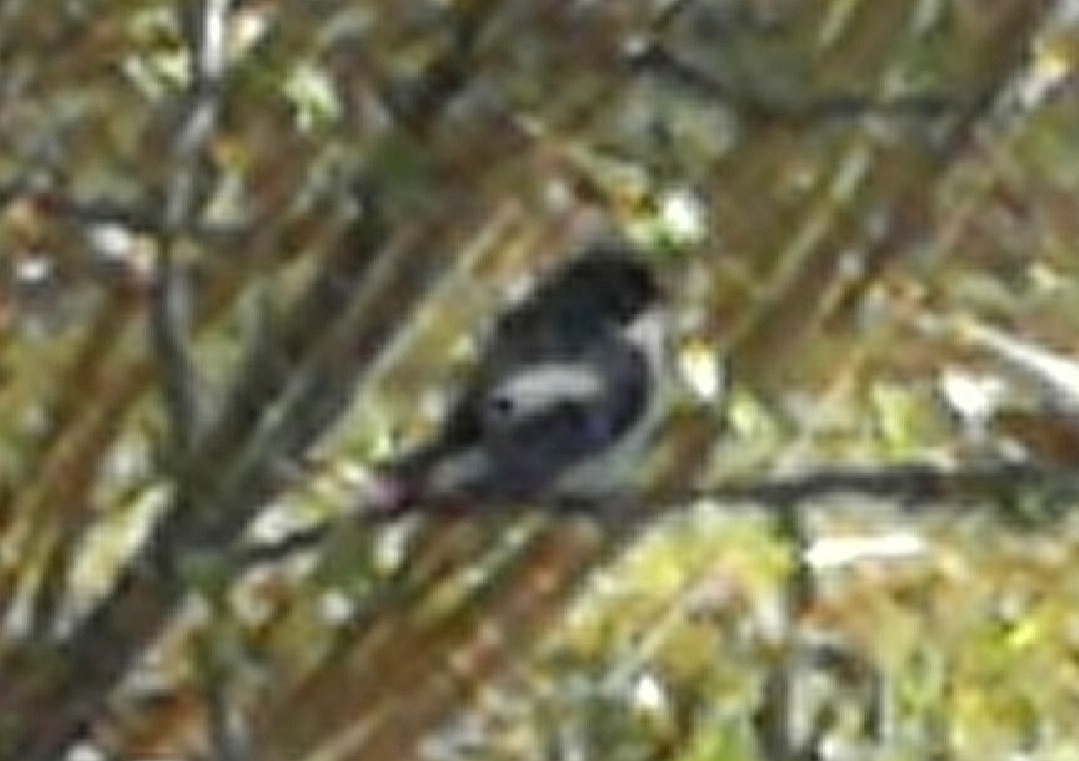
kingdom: Animalia
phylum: Chordata
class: Aves
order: Passeriformes
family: Muscicapidae
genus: Ficedula
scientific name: Ficedula hypoleuca
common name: European pied flycatcher
